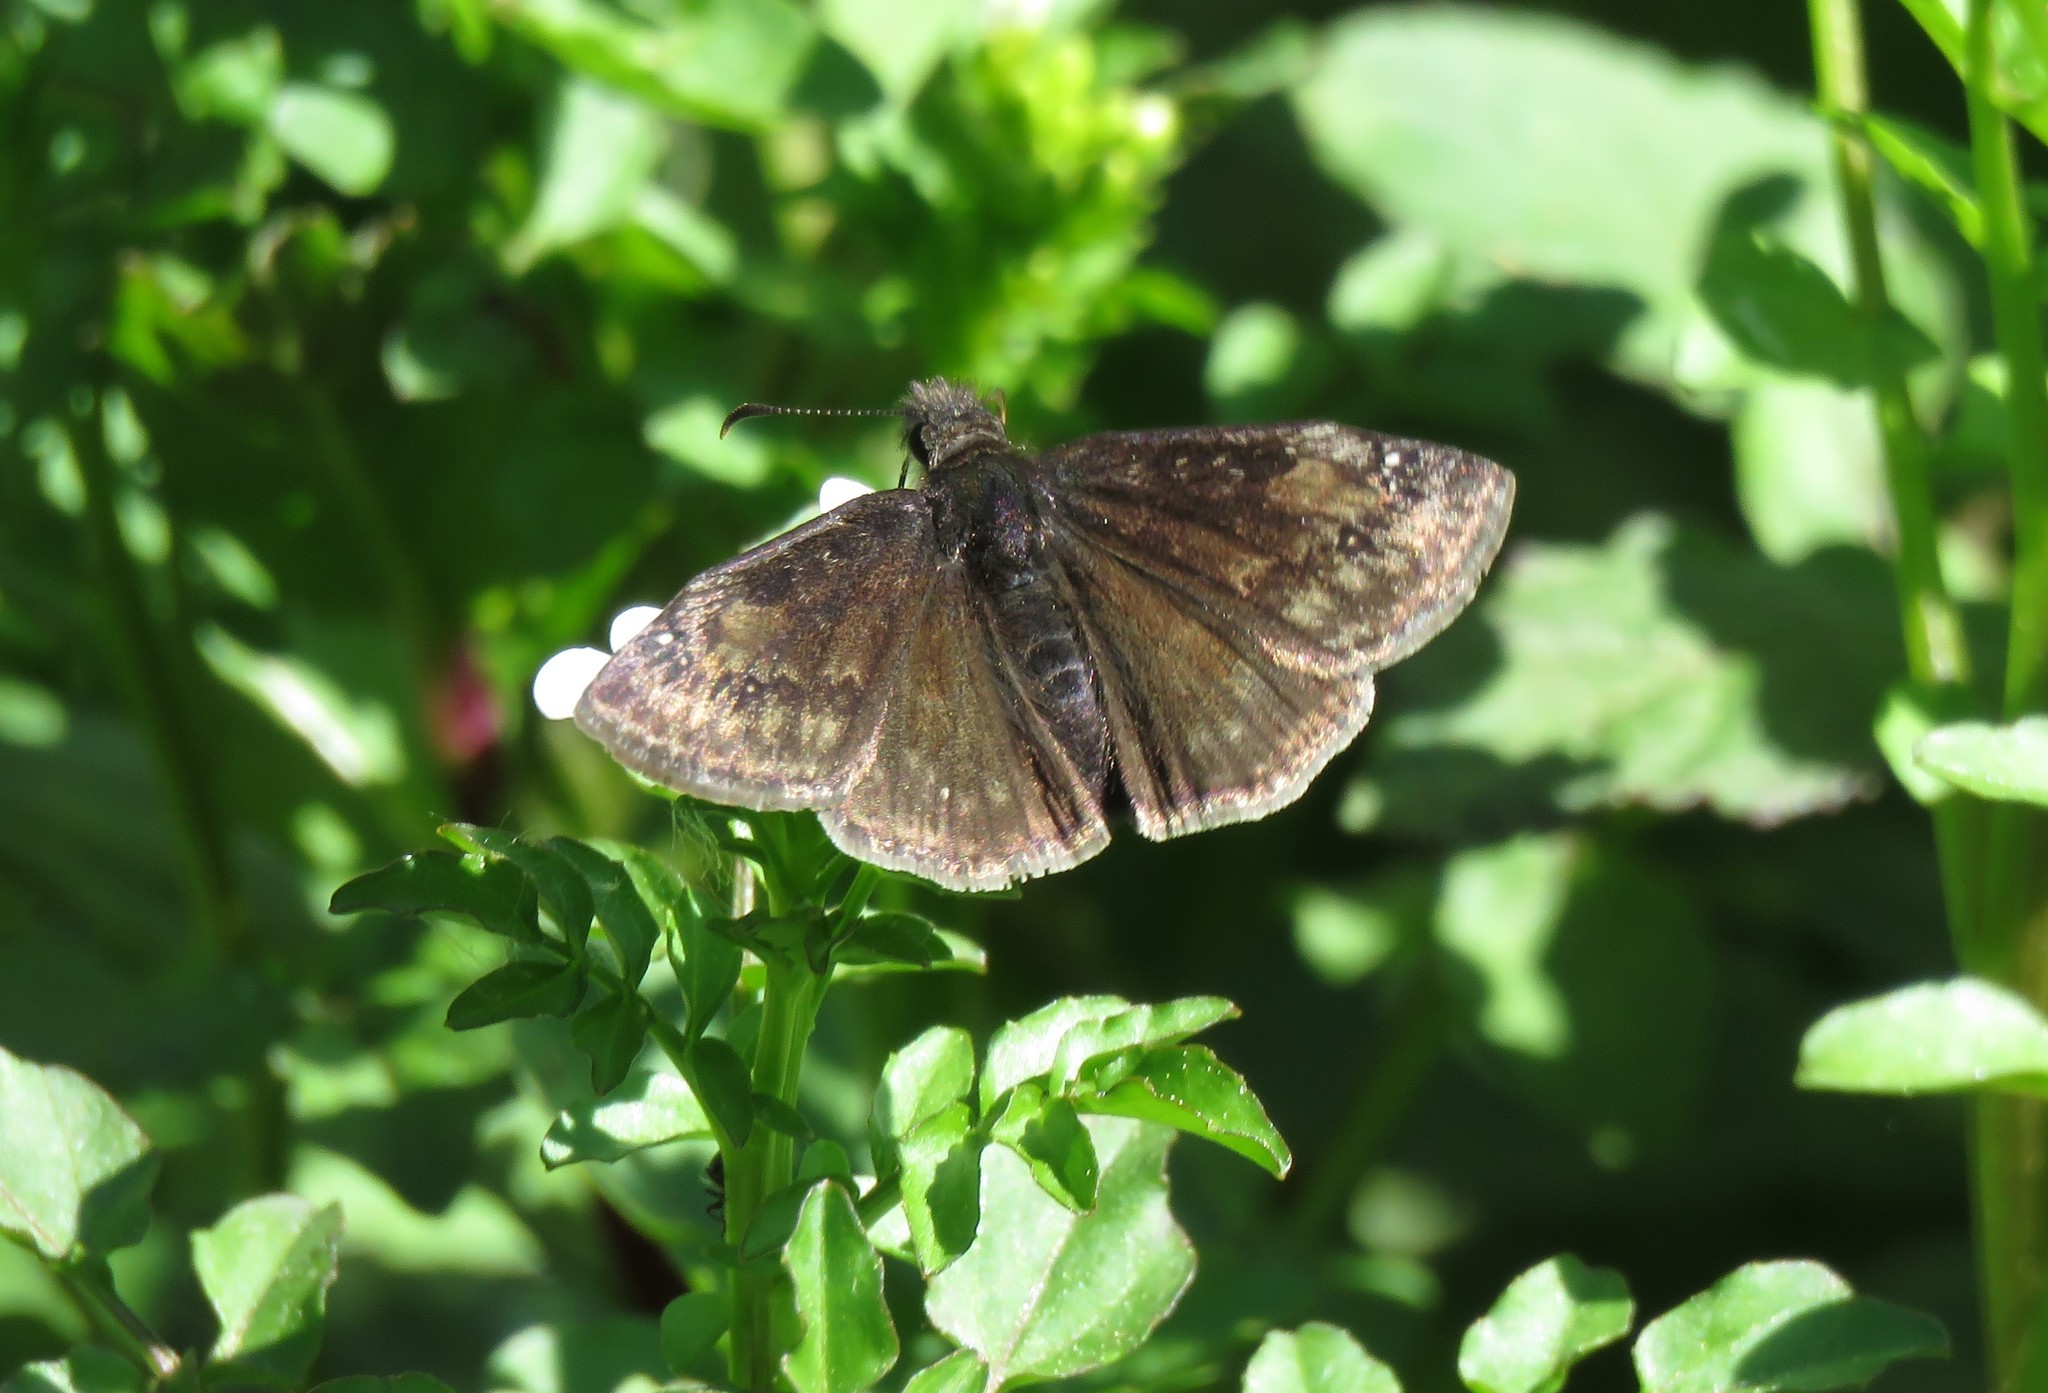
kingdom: Animalia
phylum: Arthropoda
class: Insecta
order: Lepidoptera
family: Hesperiidae
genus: Erynnis
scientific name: Erynnis baptisiae
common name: Wild indigo duskywing
